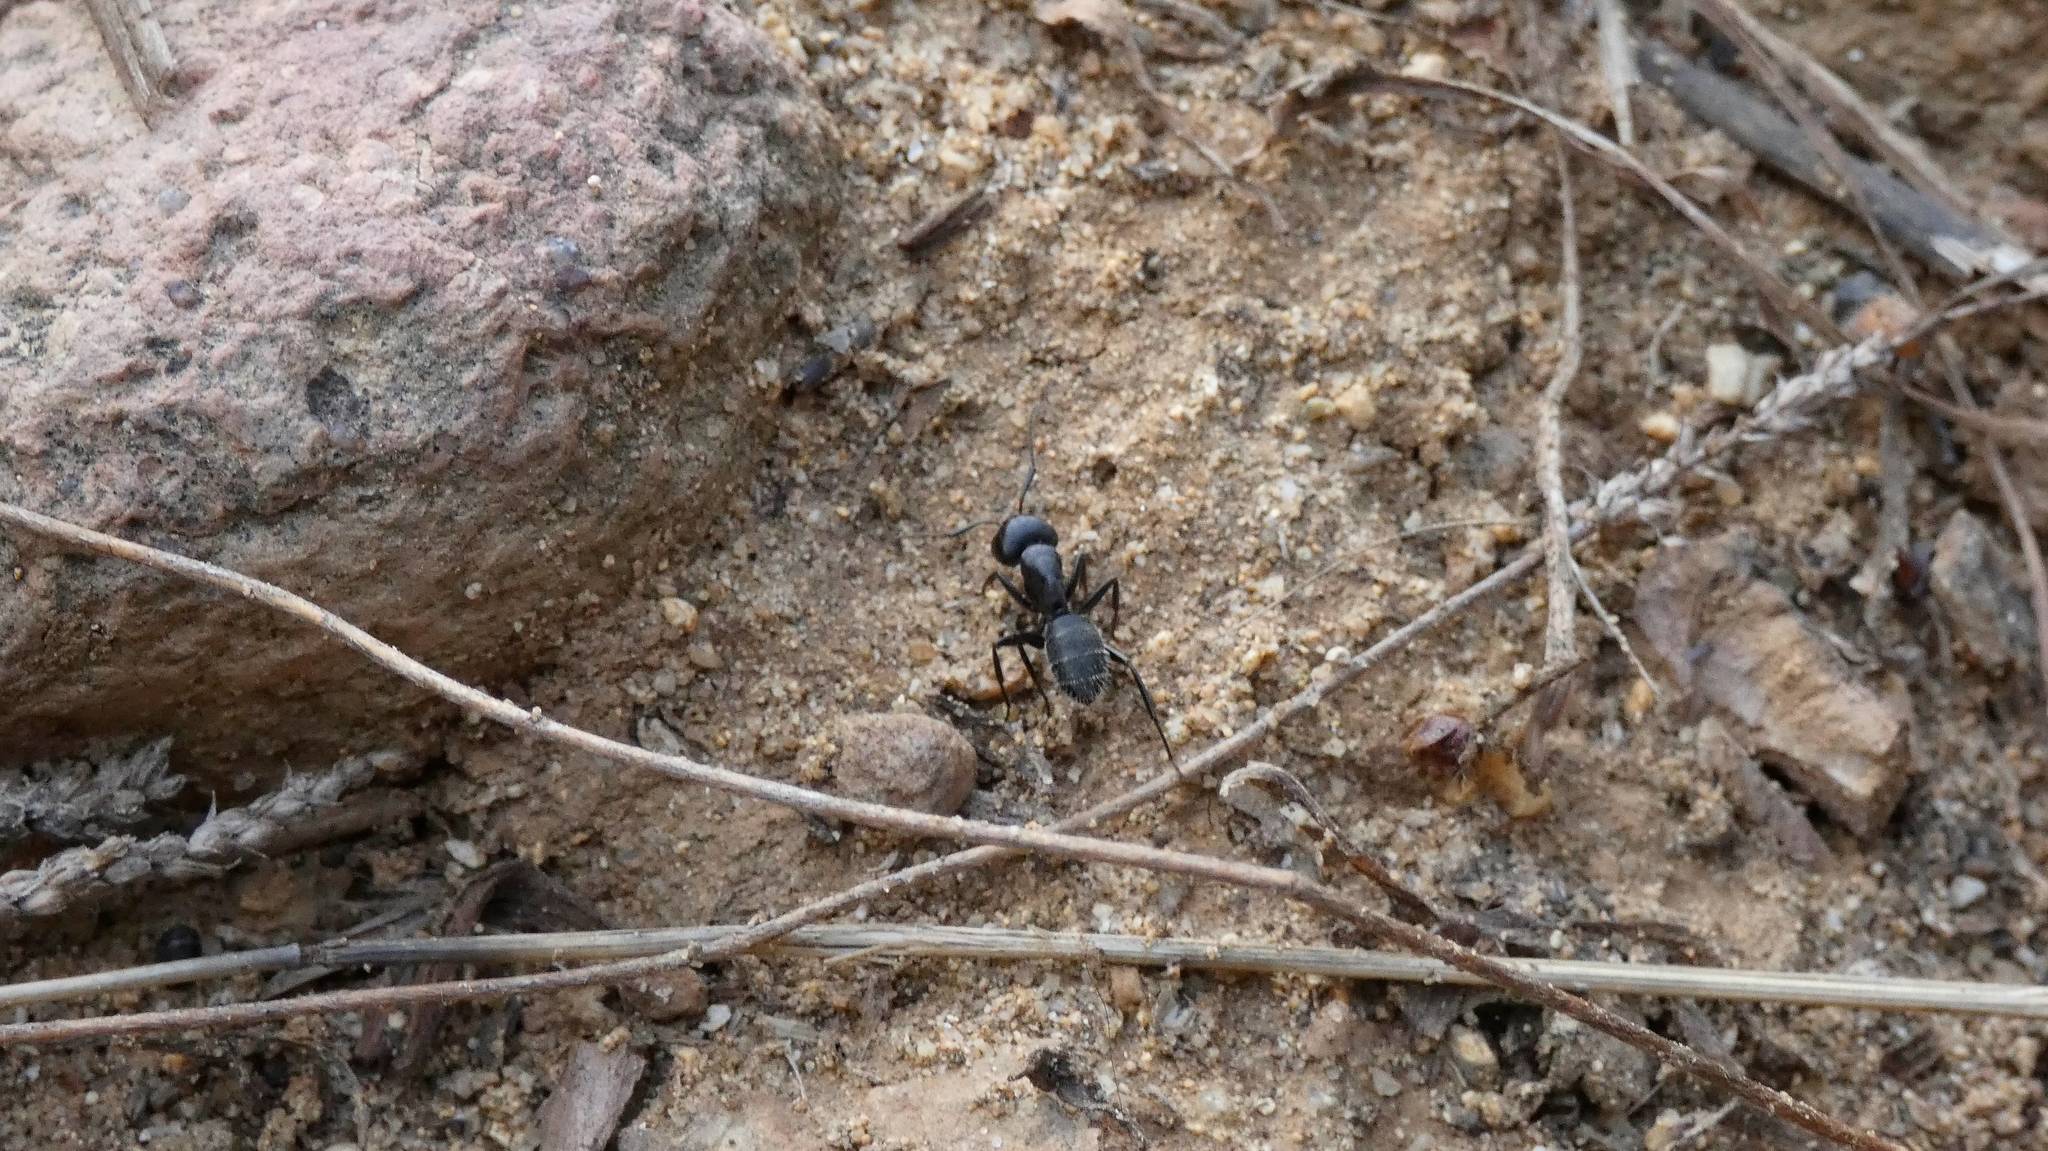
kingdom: Animalia
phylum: Arthropoda
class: Insecta
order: Hymenoptera
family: Formicidae
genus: Camponotus
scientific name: Camponotus vagus
